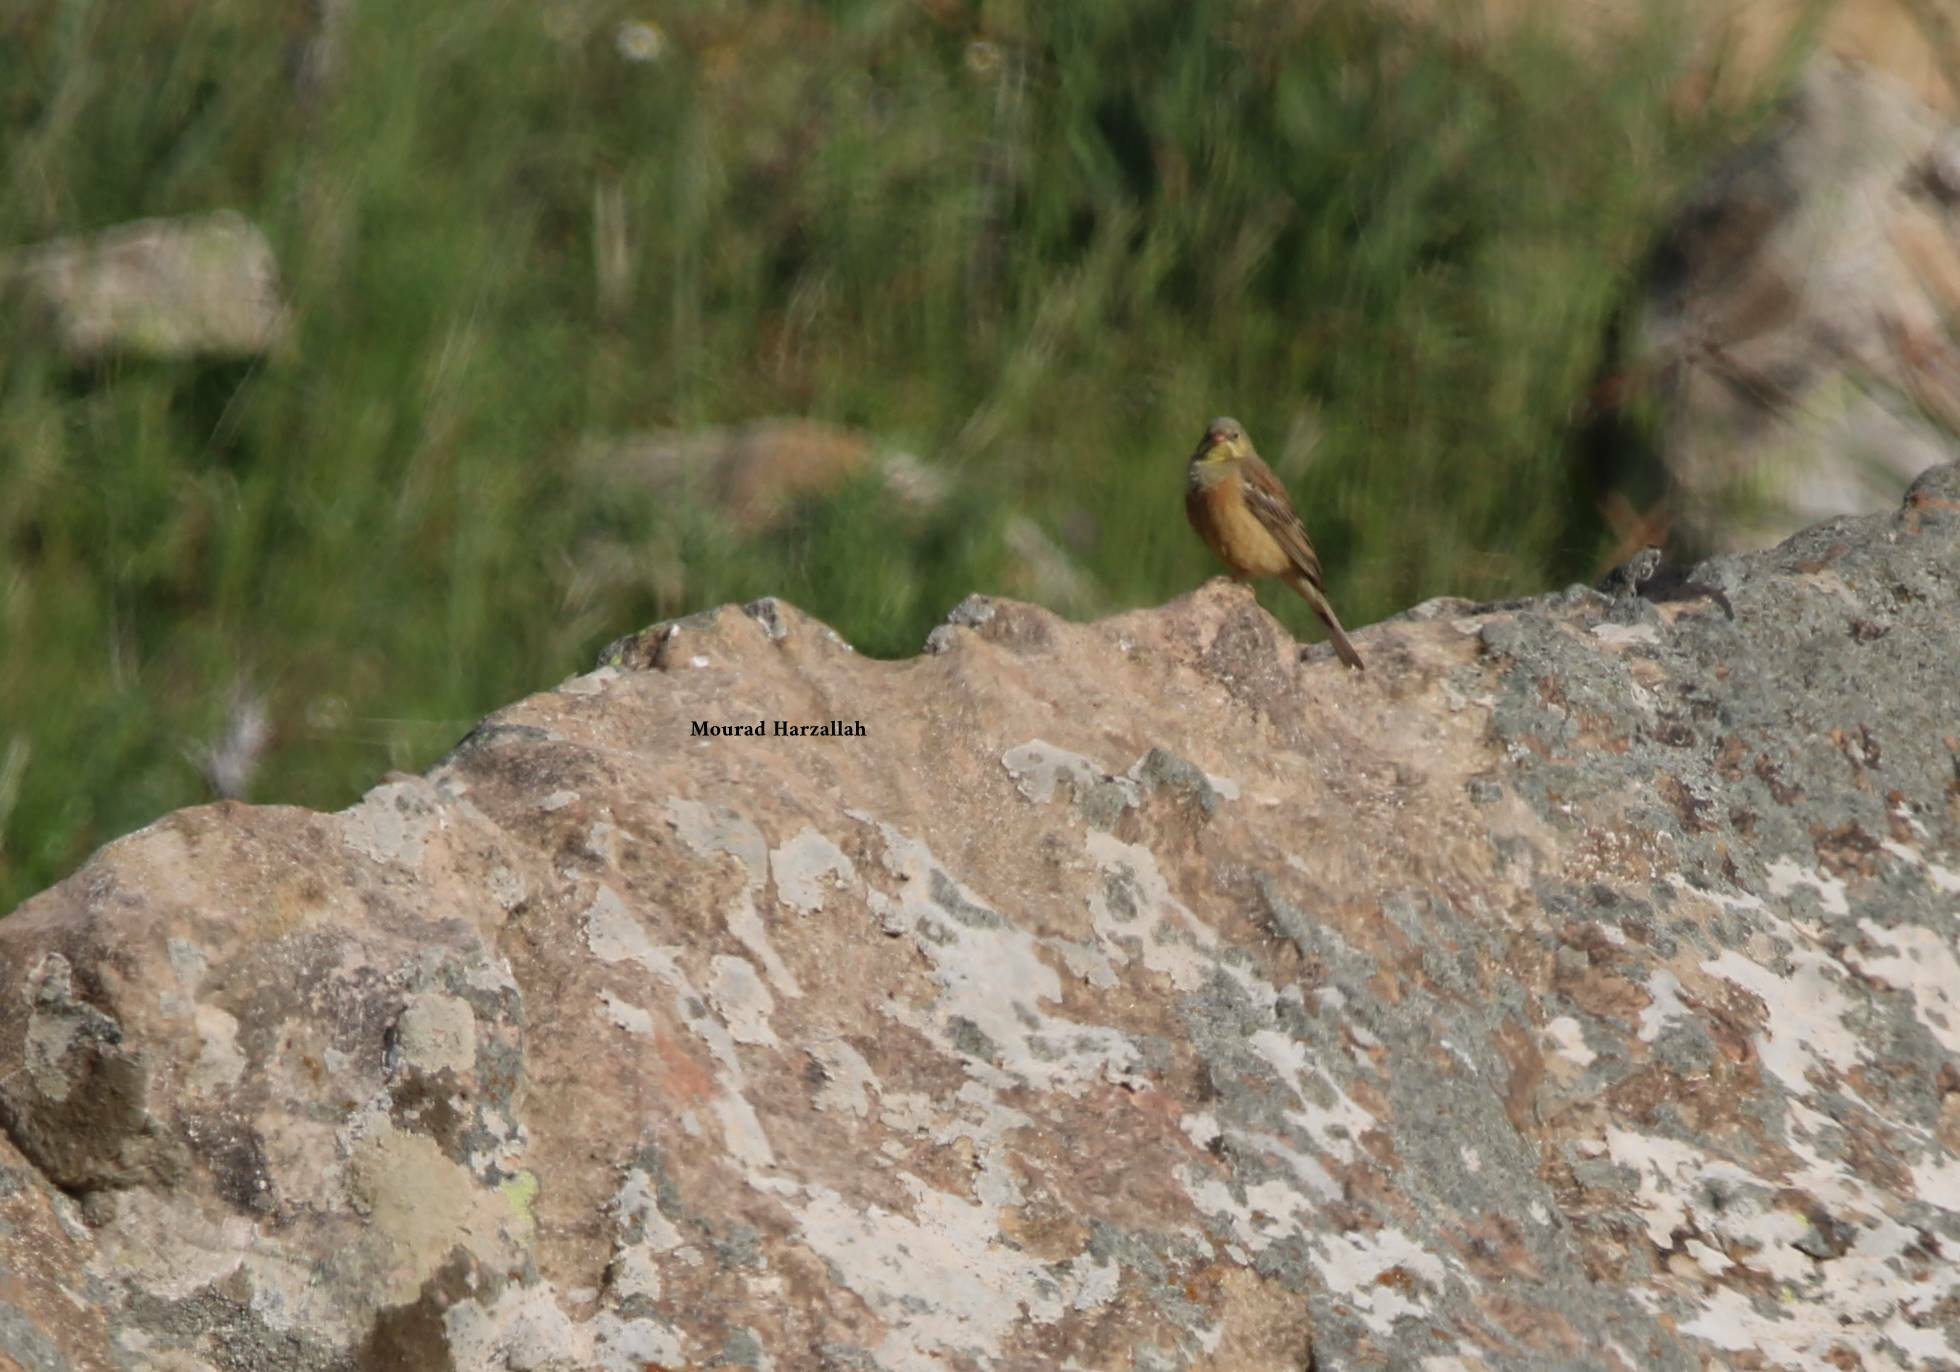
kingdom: Animalia
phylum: Chordata
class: Aves
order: Passeriformes
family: Emberizidae
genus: Emberiza
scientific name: Emberiza hortulana
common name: Ortolan bunting
